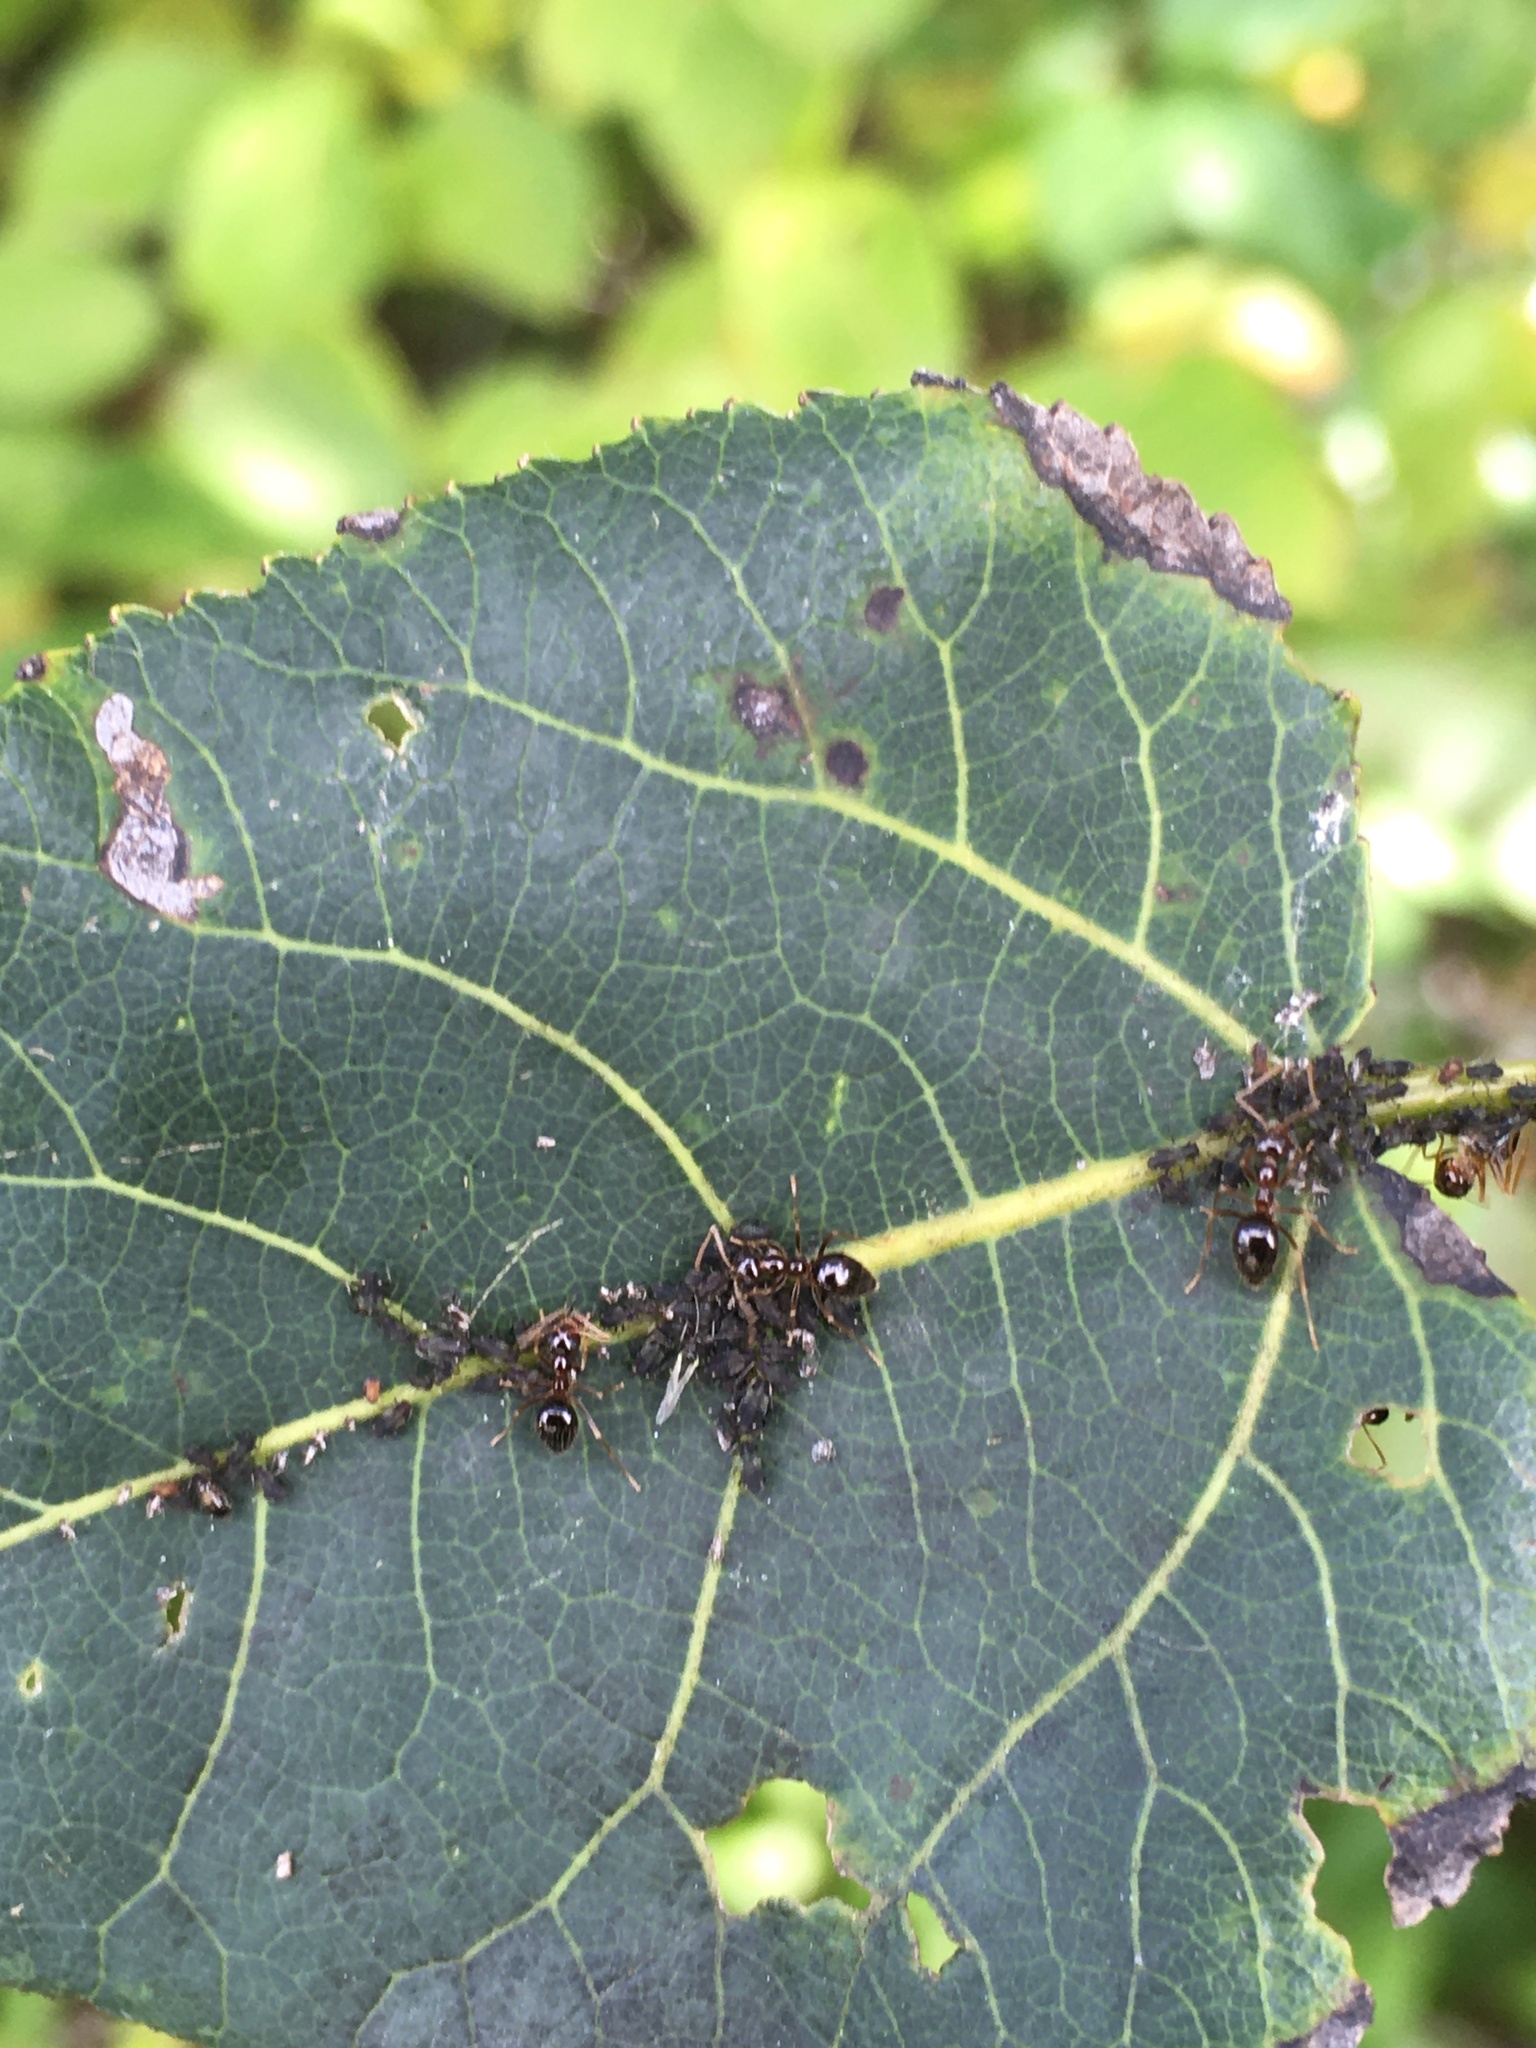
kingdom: Animalia
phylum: Arthropoda
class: Insecta
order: Hymenoptera
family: Formicidae
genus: Prenolepis
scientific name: Prenolepis imparis
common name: Small honey ant
